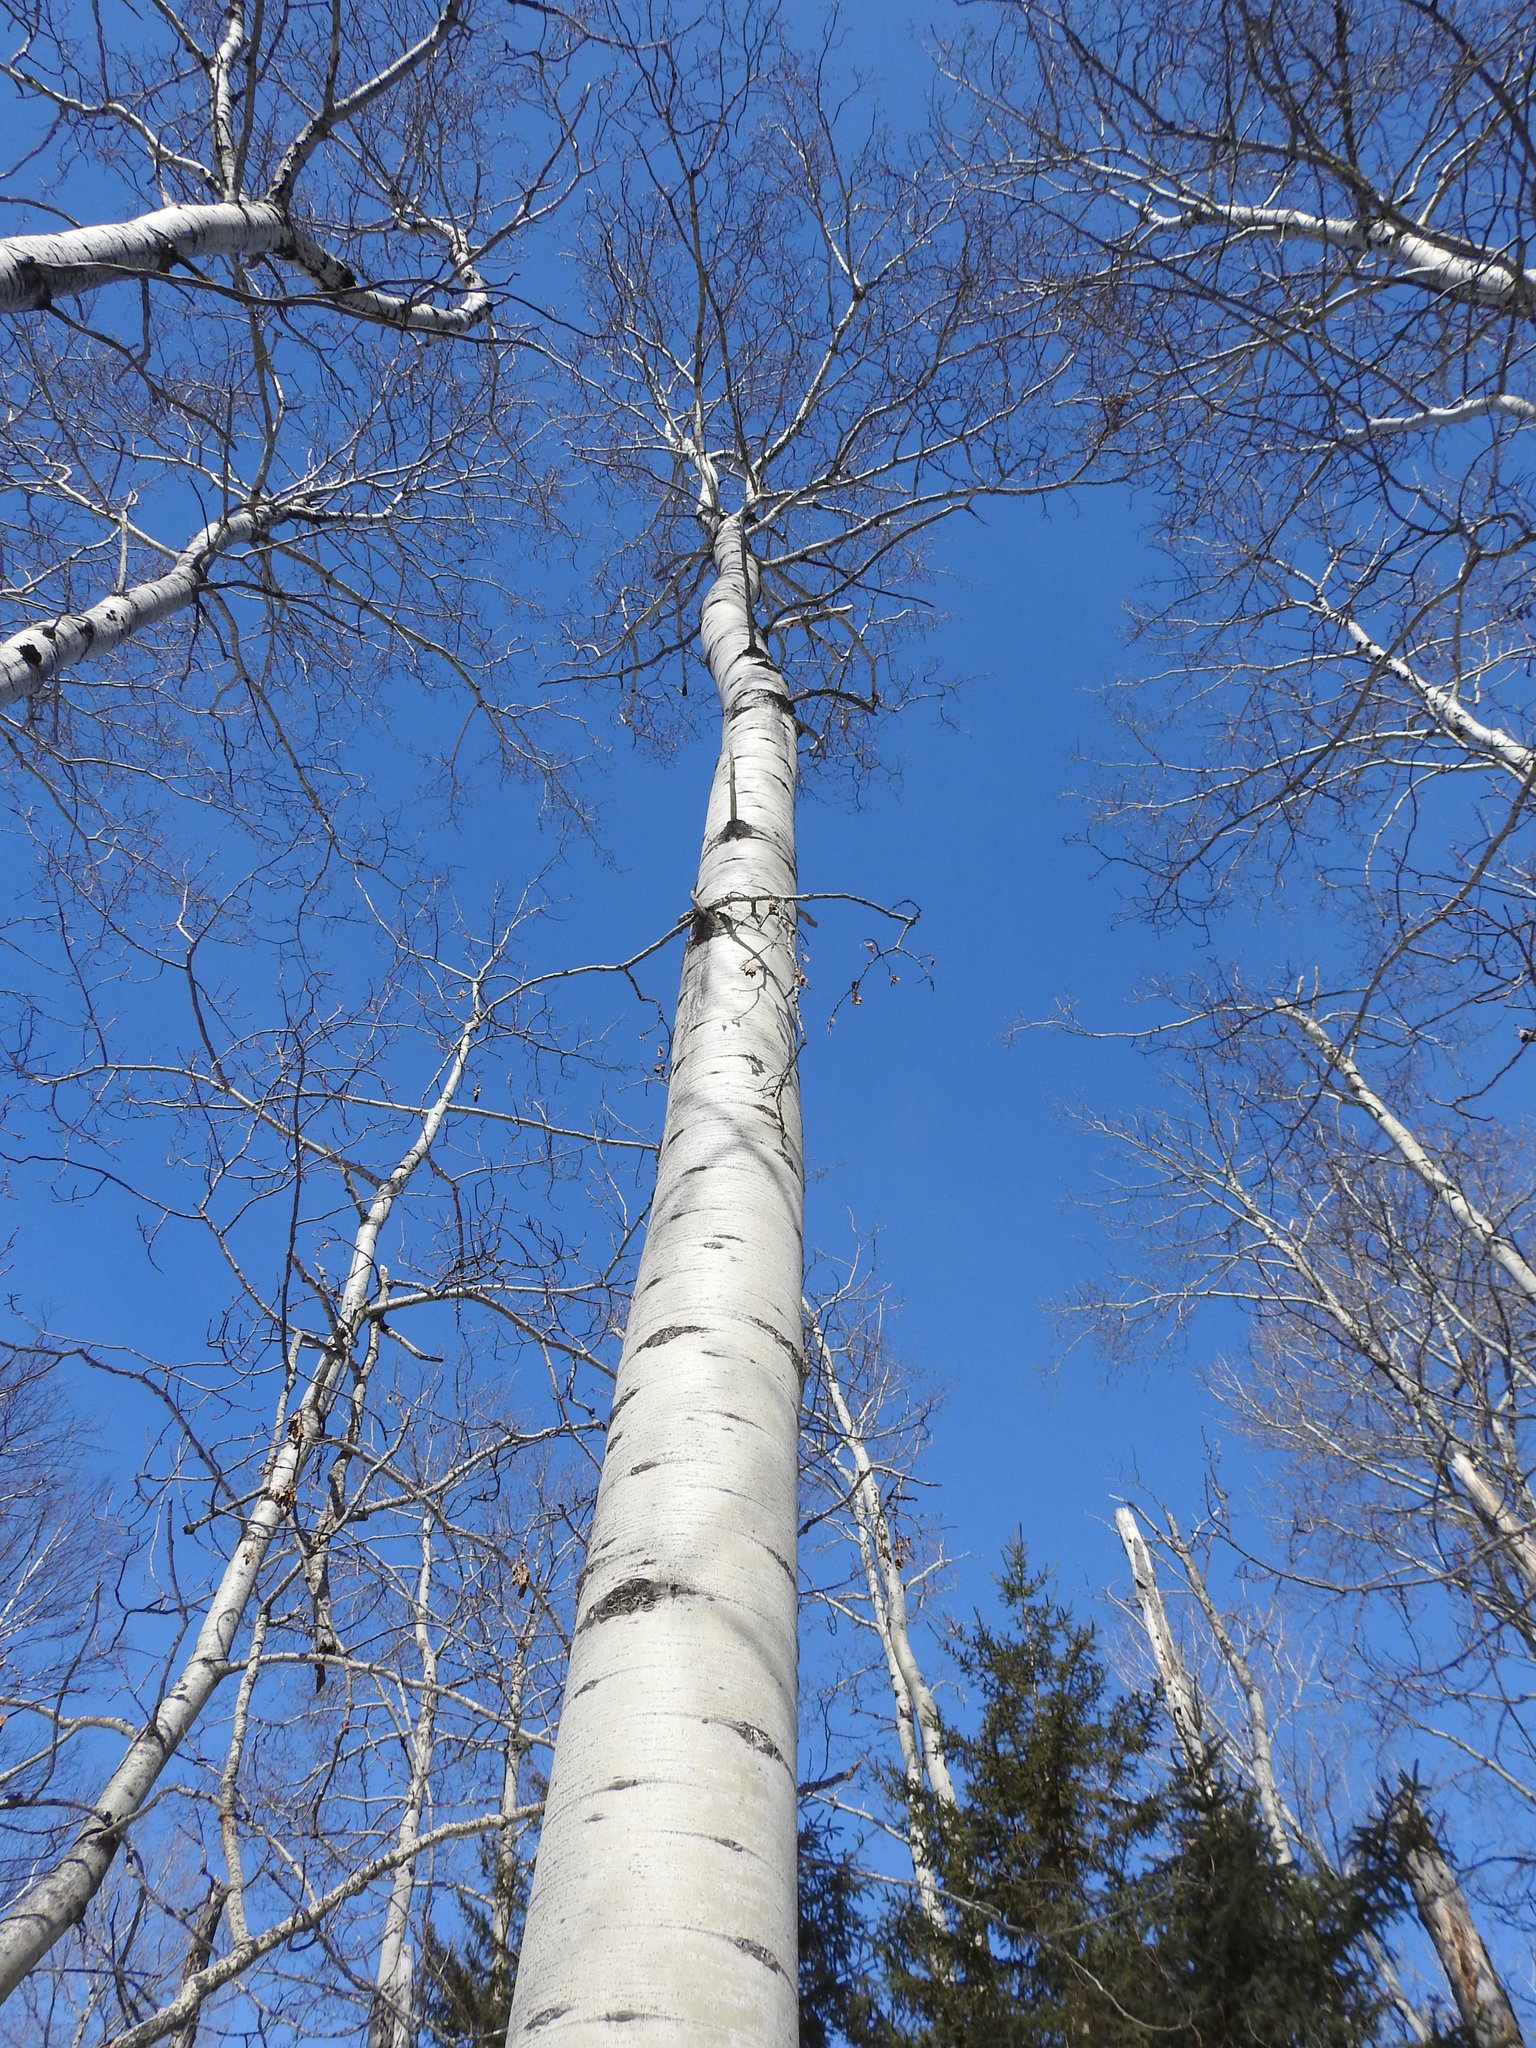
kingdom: Plantae
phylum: Tracheophyta
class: Magnoliopsida
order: Malpighiales
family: Salicaceae
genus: Populus
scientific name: Populus tremuloides
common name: Quaking aspen
